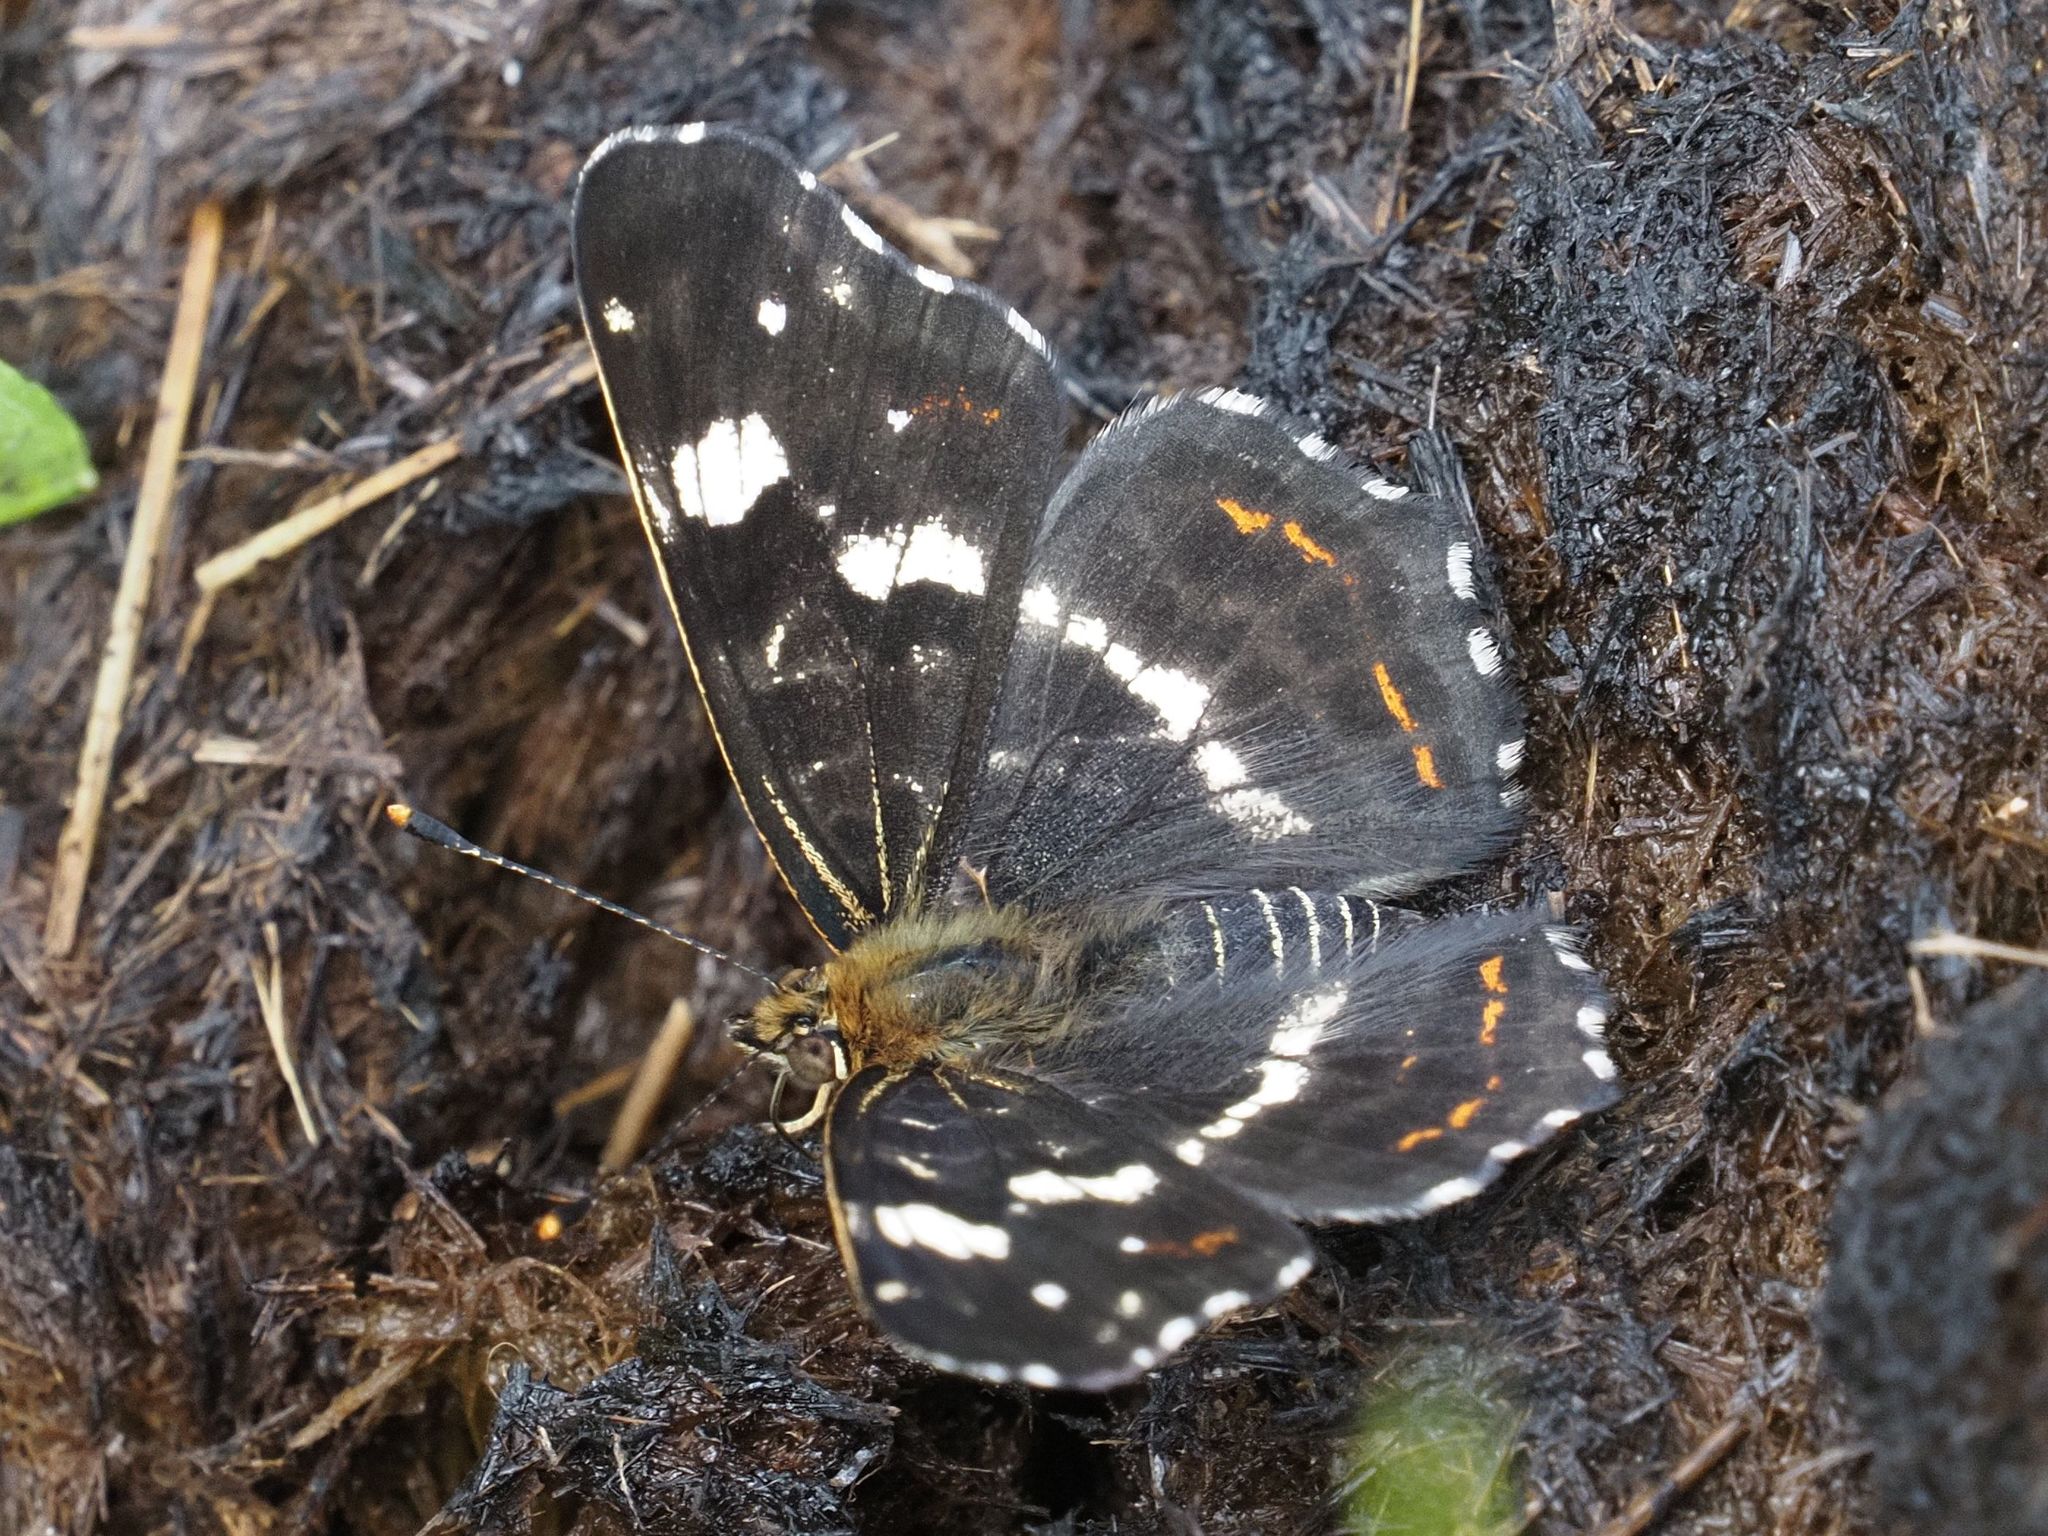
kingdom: Animalia
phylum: Arthropoda
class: Insecta
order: Lepidoptera
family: Nymphalidae
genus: Araschnia
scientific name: Araschnia levana
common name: Map butterfly
